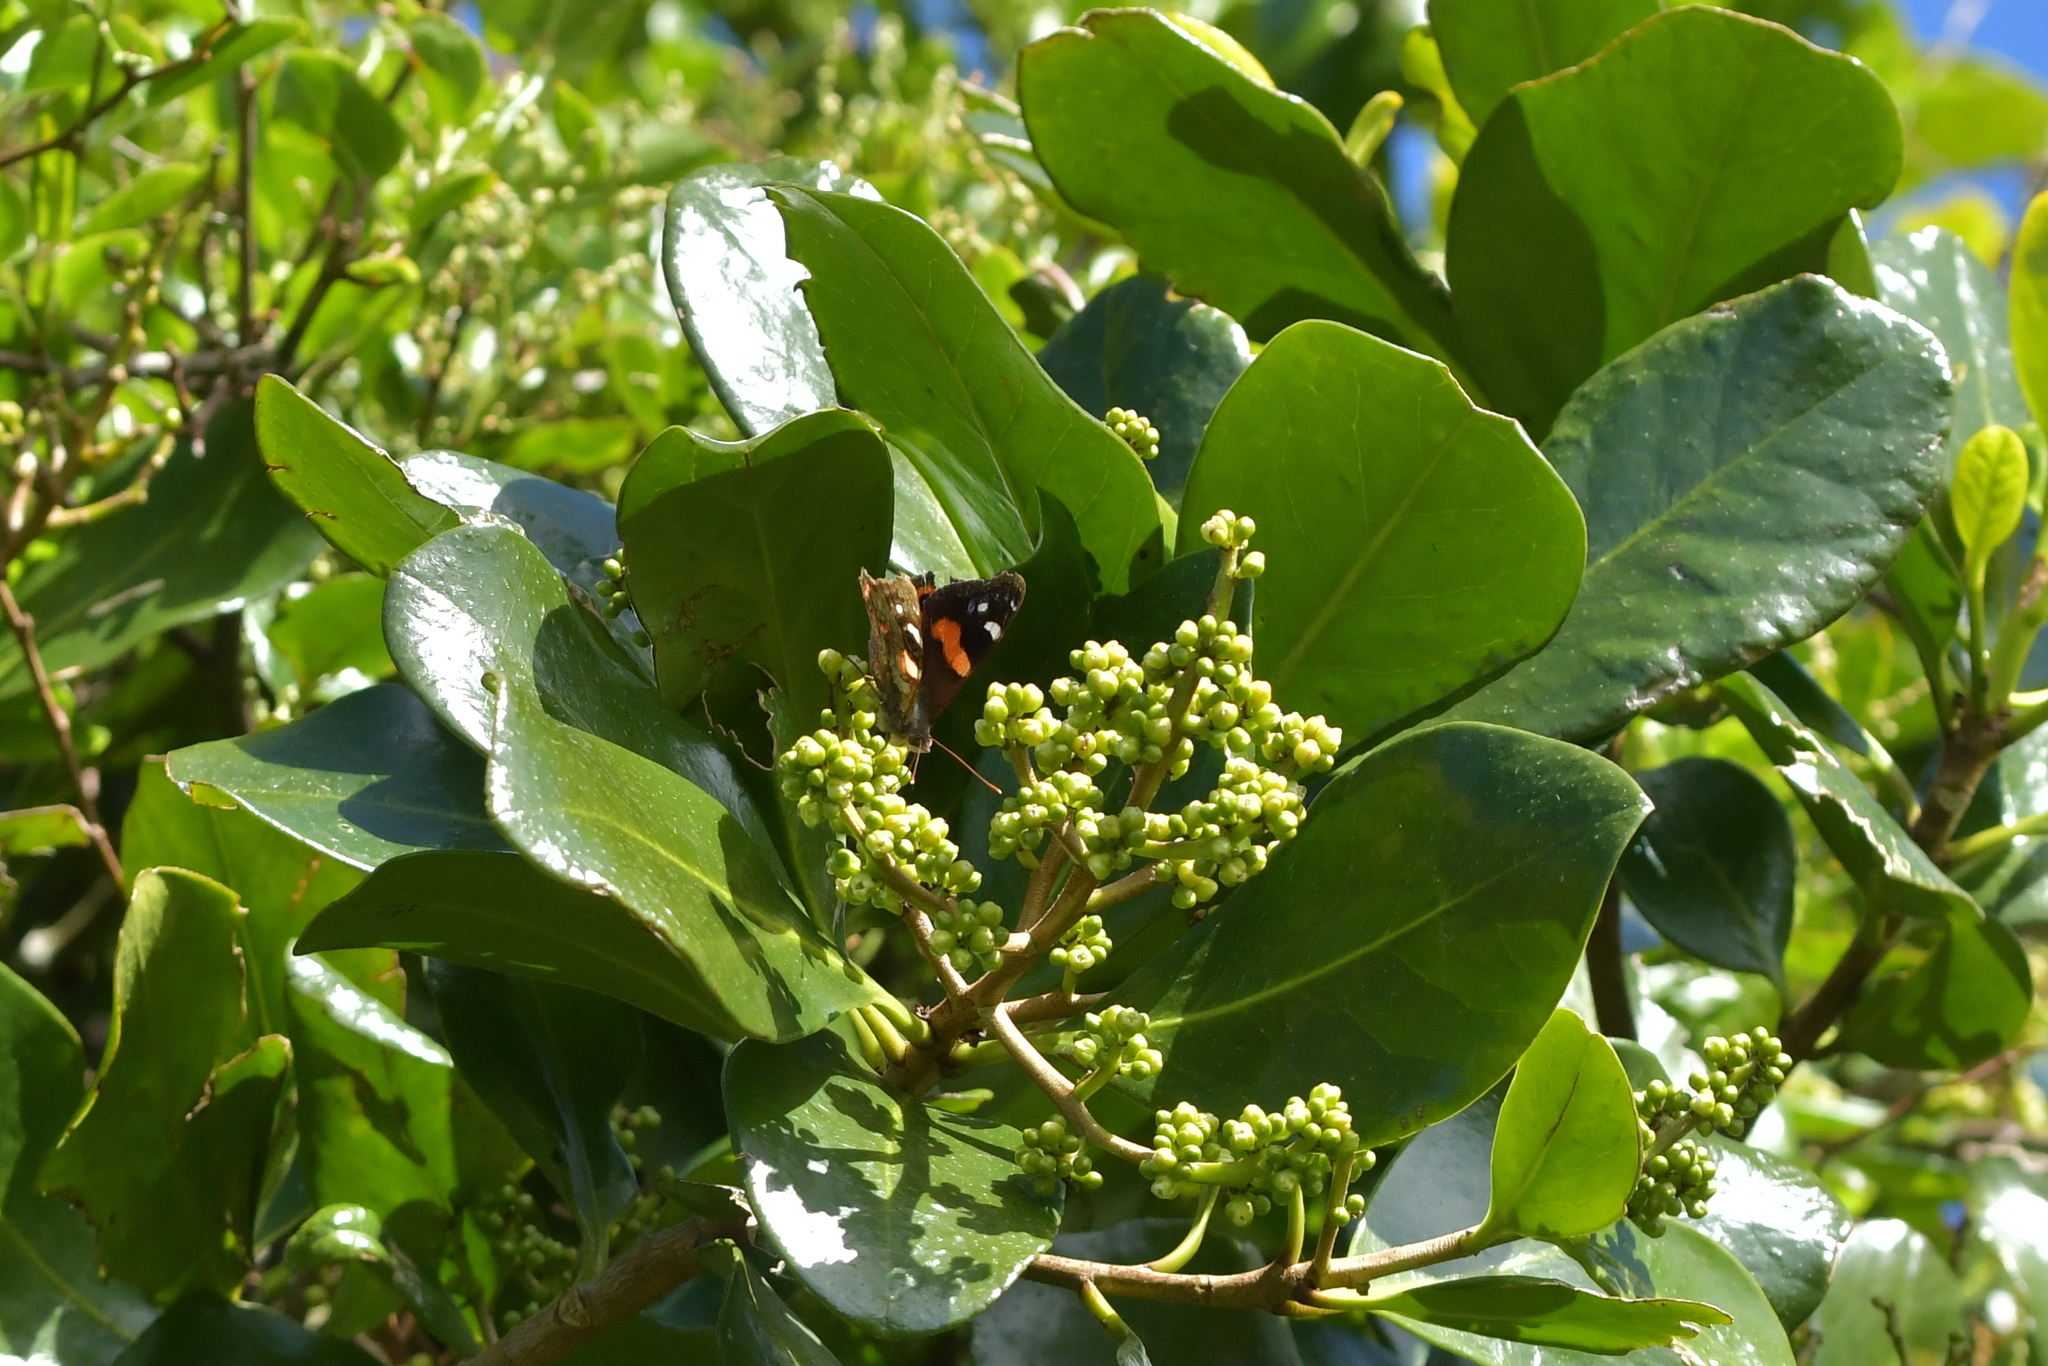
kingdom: Animalia
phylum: Arthropoda
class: Insecta
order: Lepidoptera
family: Nymphalidae
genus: Vanessa
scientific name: Vanessa gonerilla
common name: New zealand red admiral
